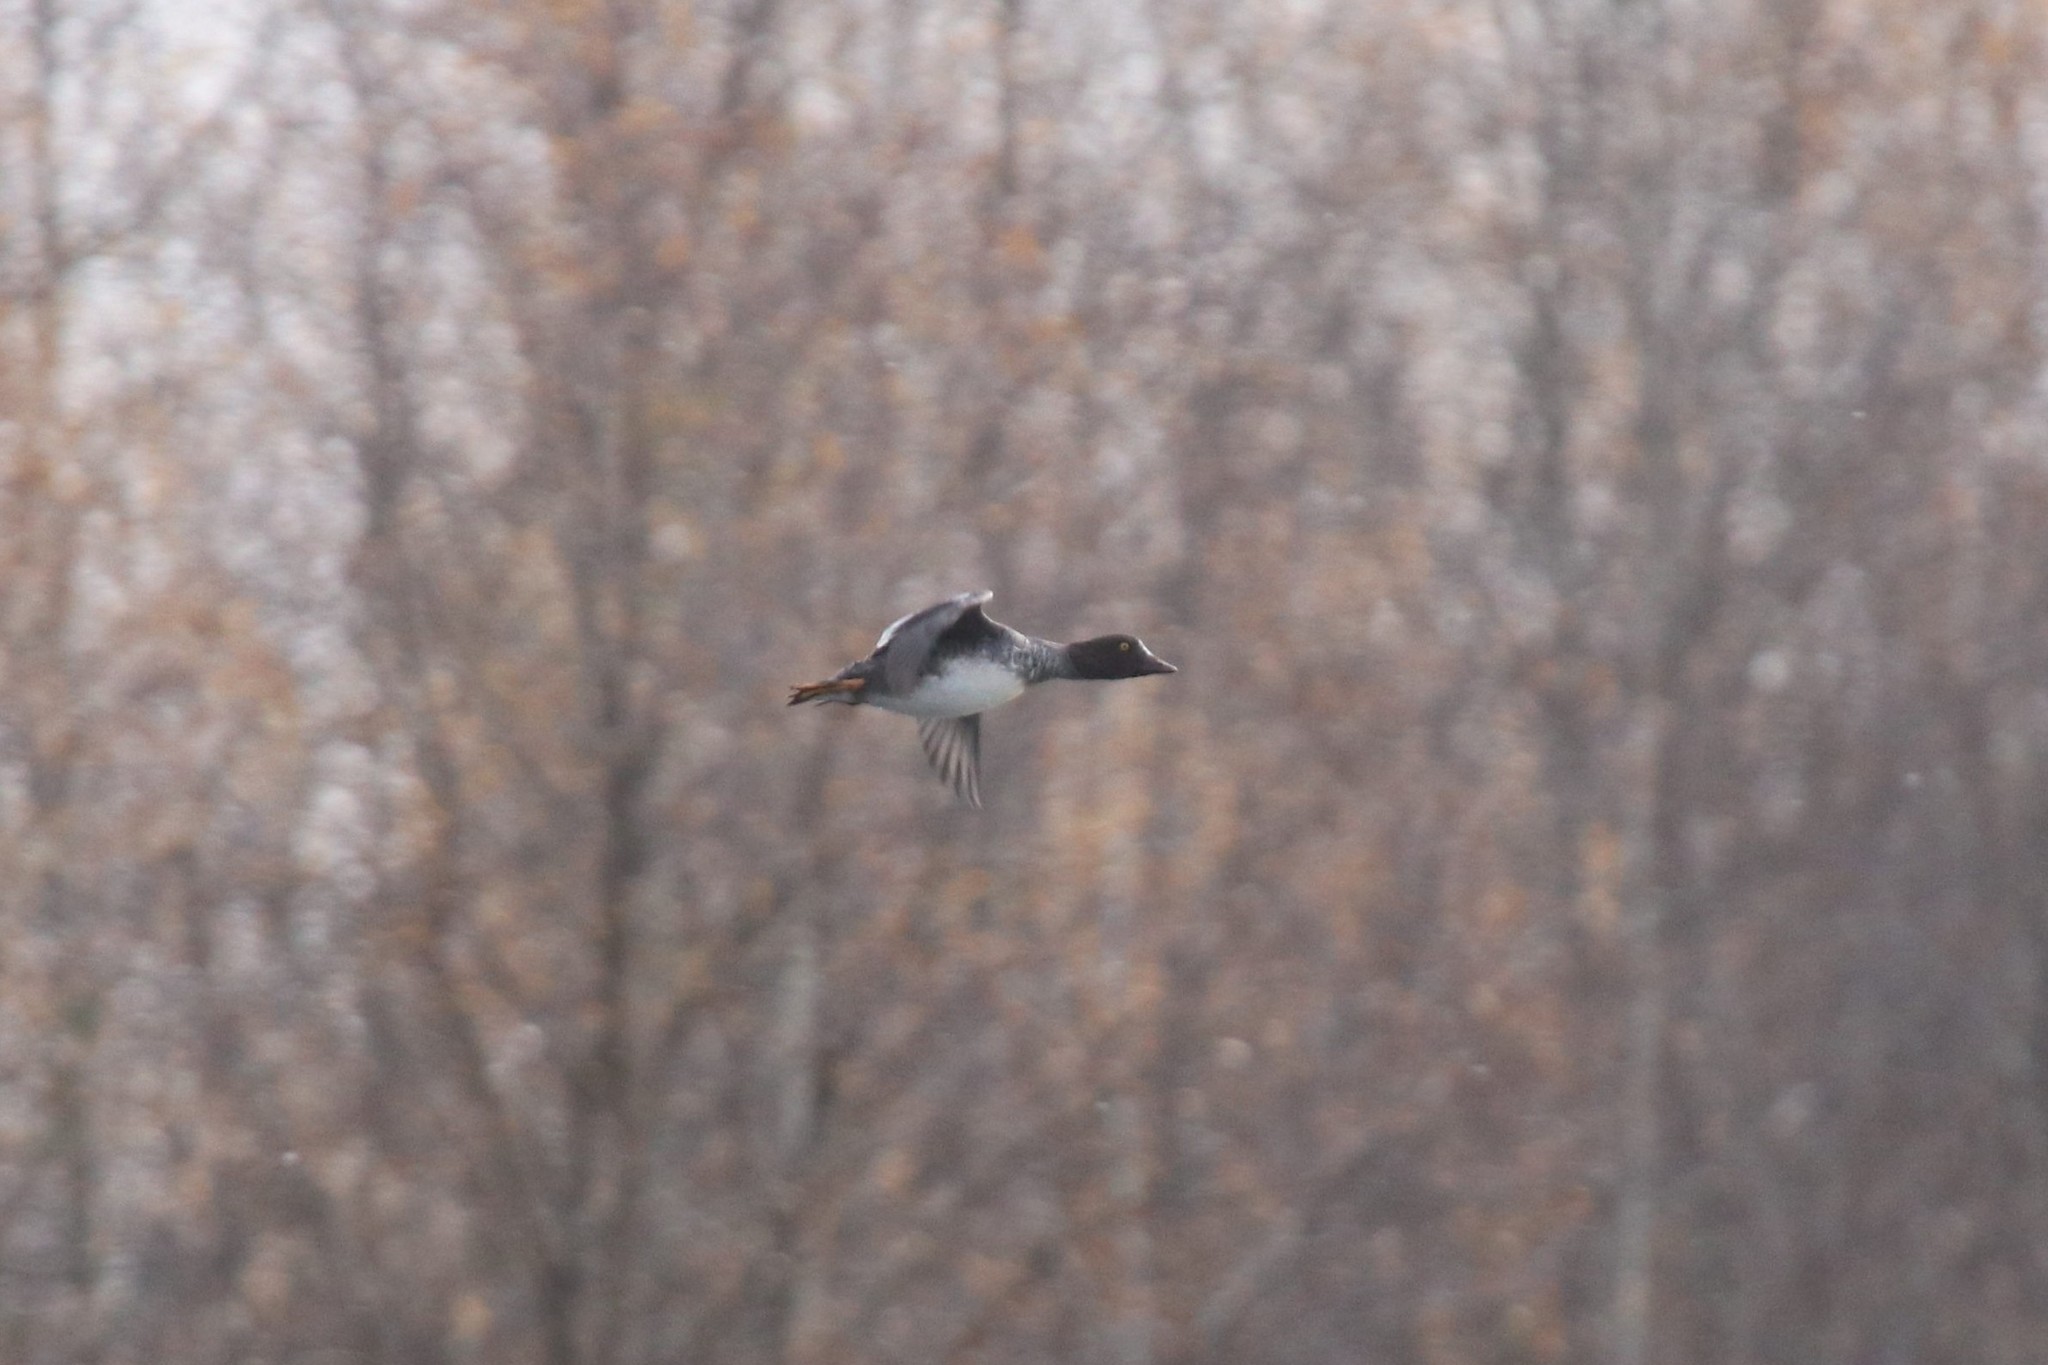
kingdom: Animalia
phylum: Chordata
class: Aves
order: Anseriformes
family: Anatidae
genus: Bucephala
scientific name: Bucephala clangula
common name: Common goldeneye
